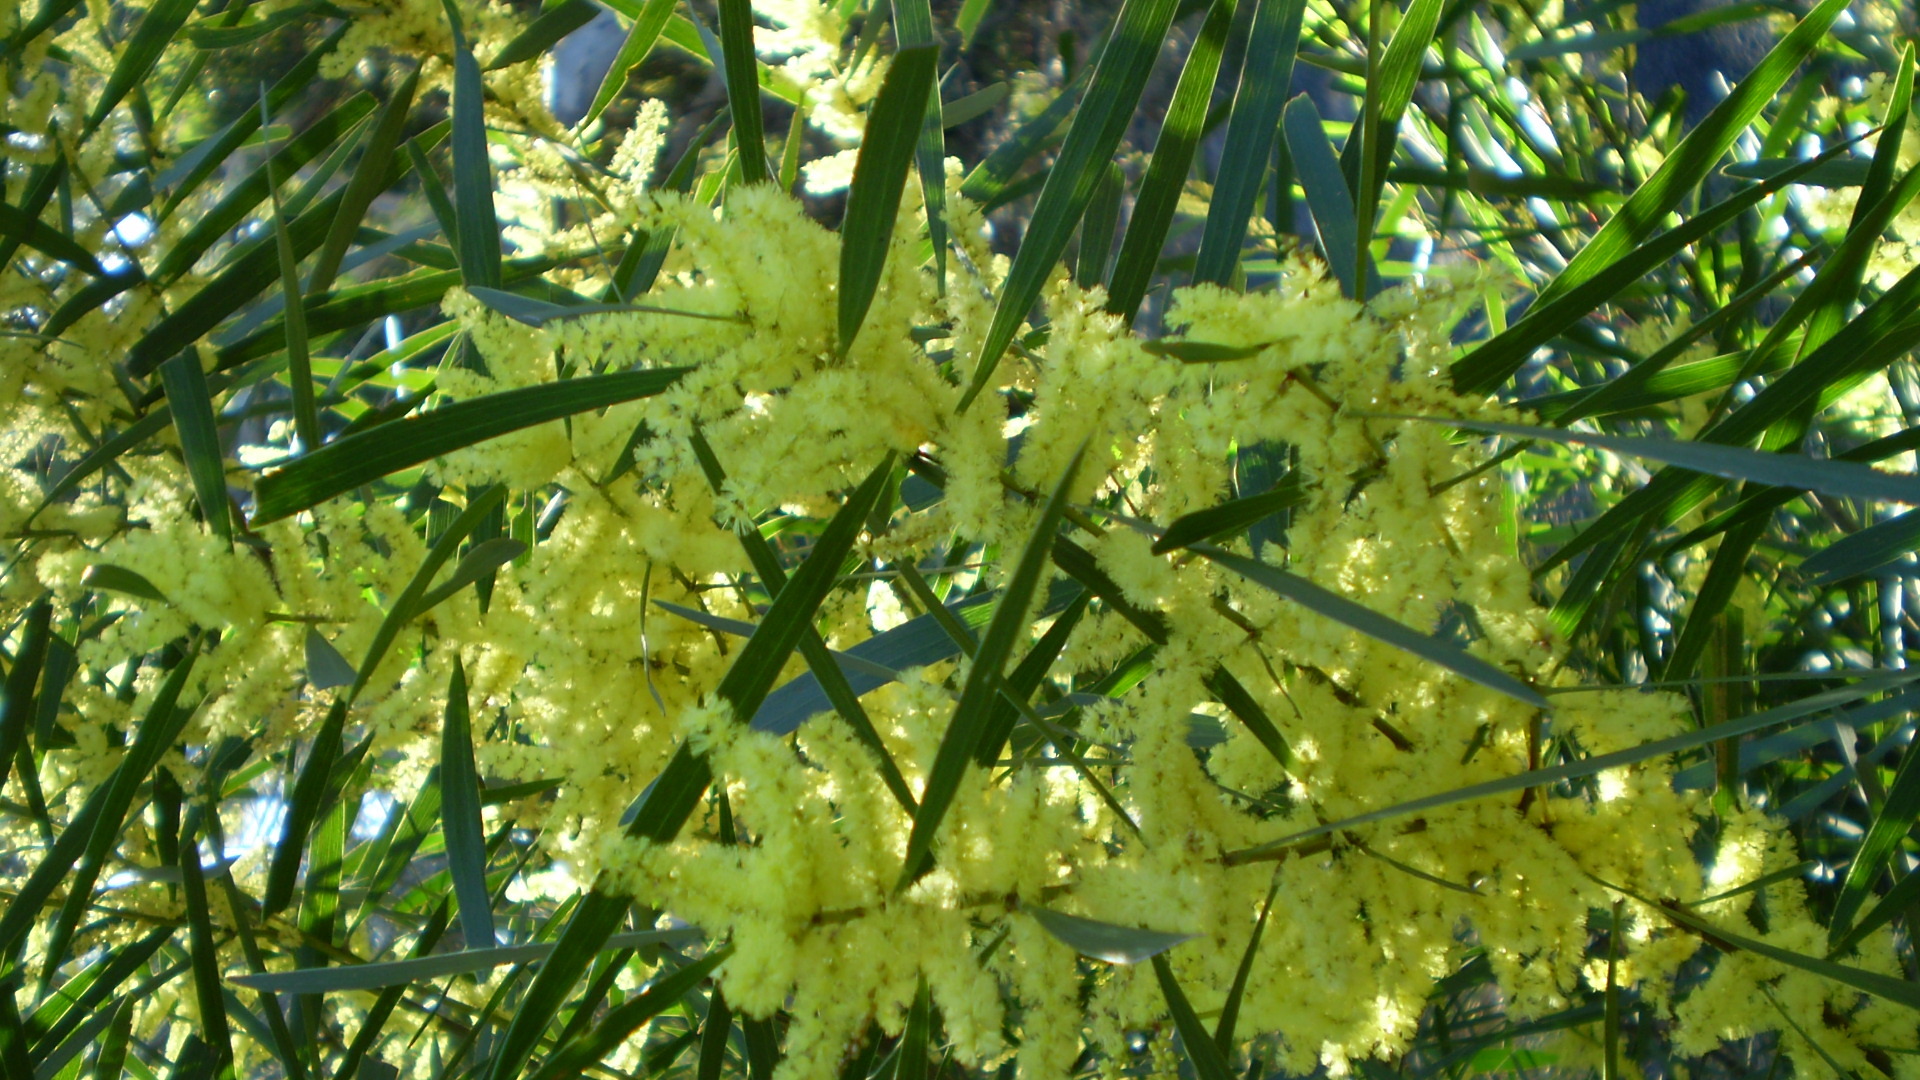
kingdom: Plantae
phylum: Tracheophyta
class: Magnoliopsida
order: Fabales
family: Fabaceae
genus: Acacia
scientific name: Acacia floribunda
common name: Gossamer wattle
